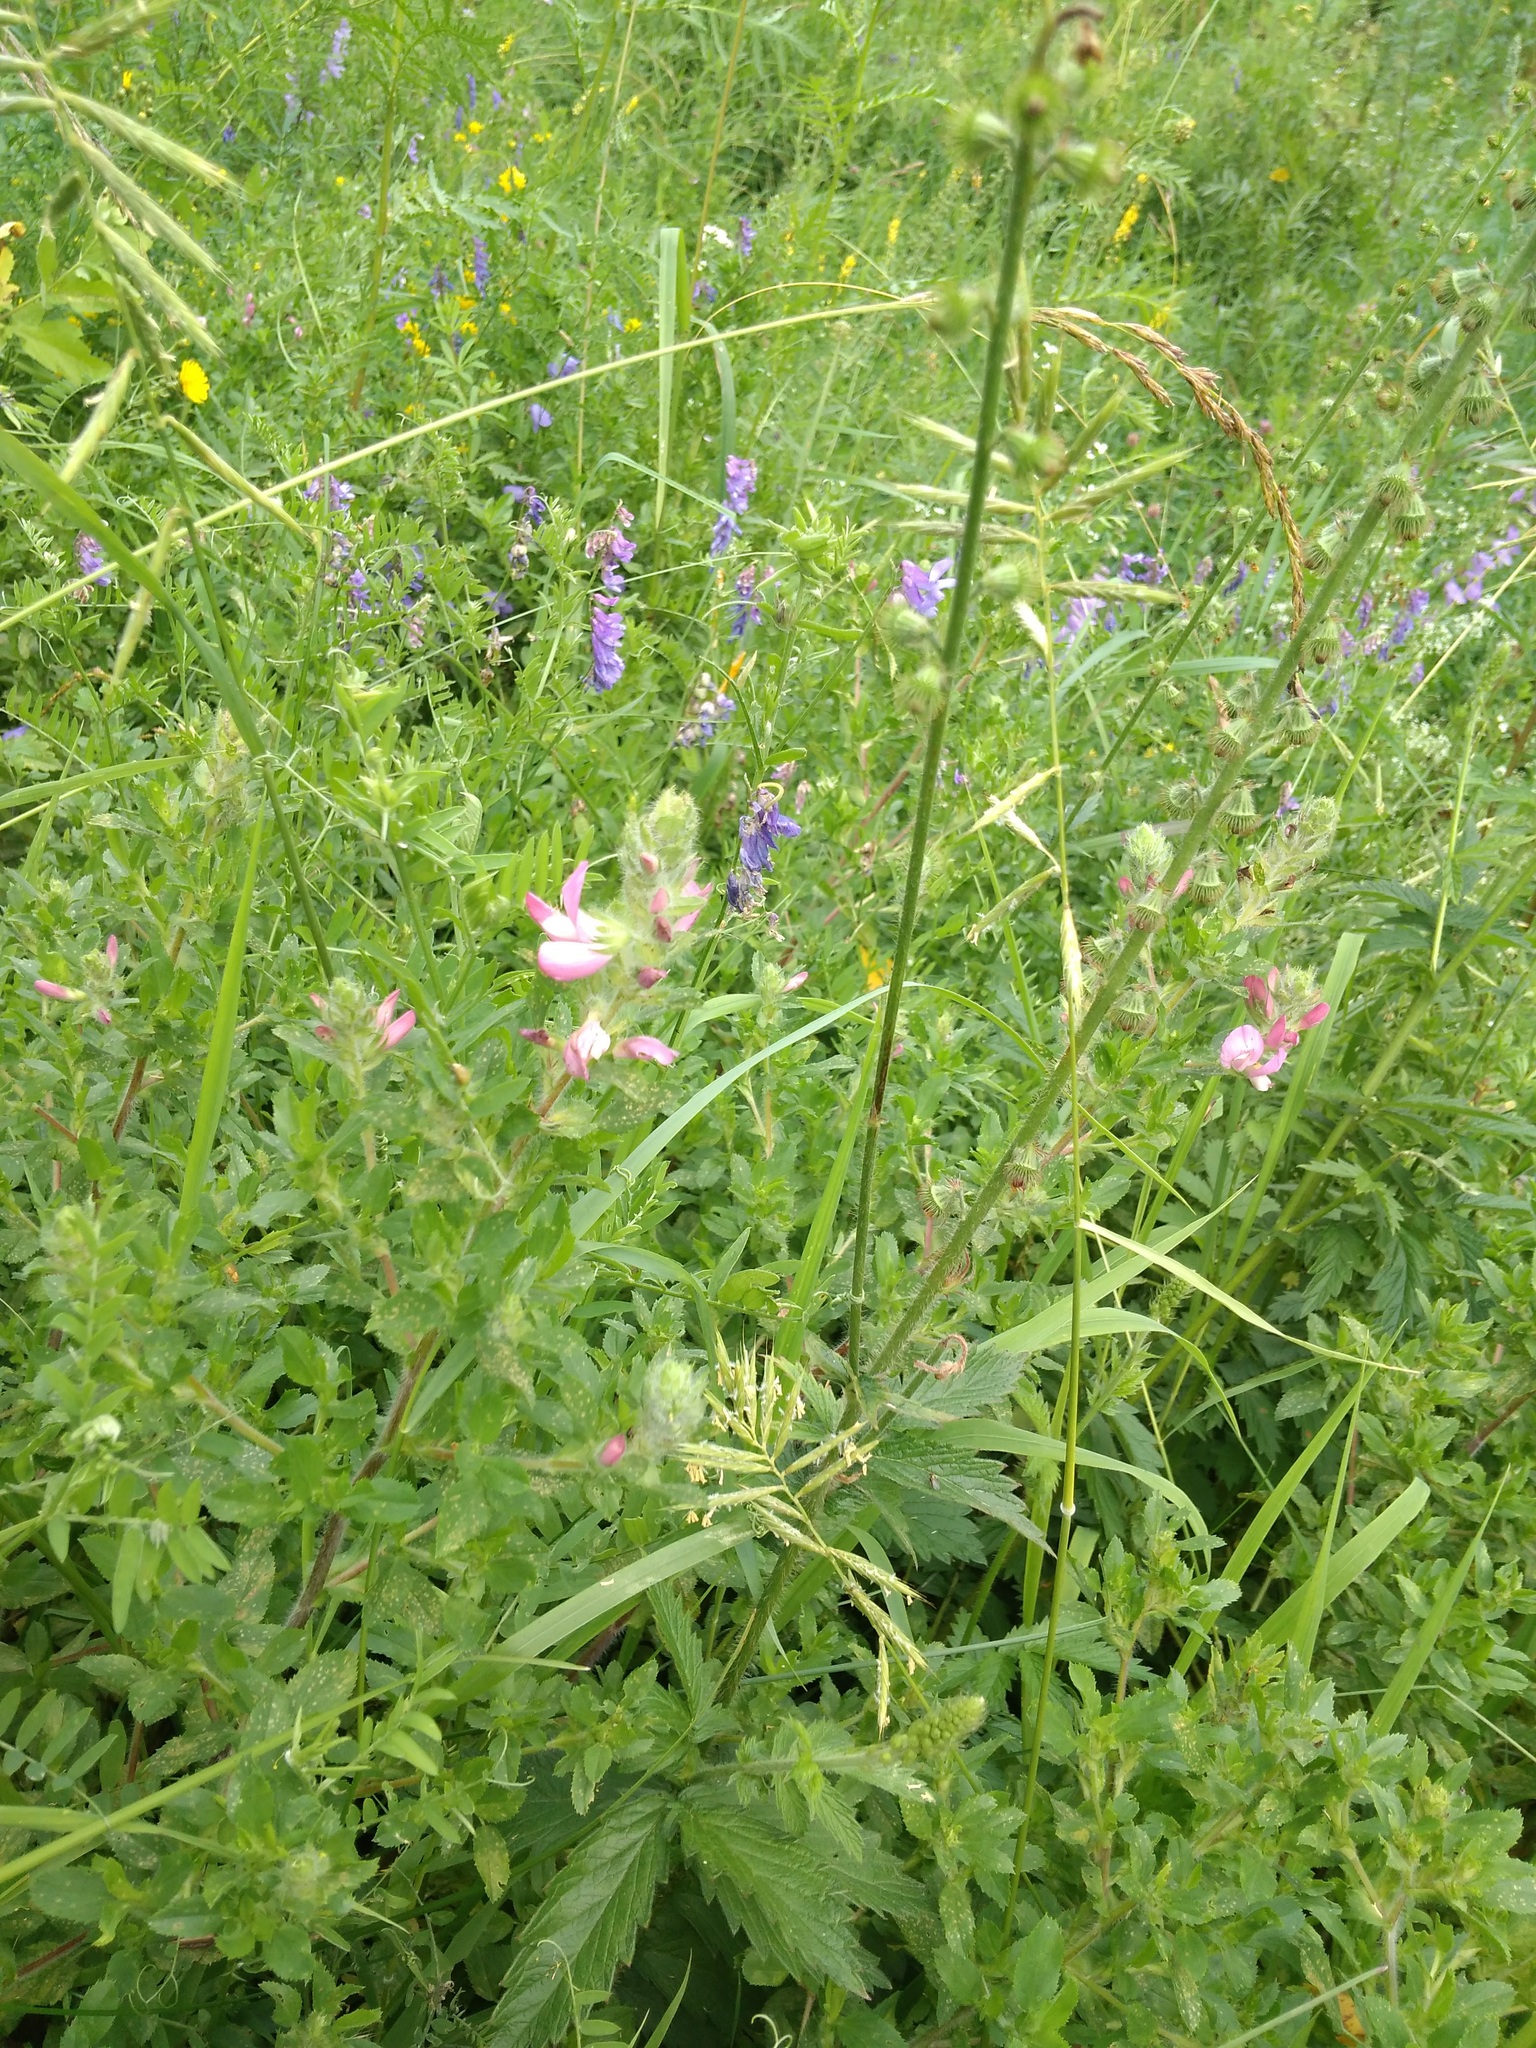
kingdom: Plantae
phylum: Tracheophyta
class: Magnoliopsida
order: Fabales
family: Fabaceae
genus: Ononis
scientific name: Ononis arvensis
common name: Field restharrow
